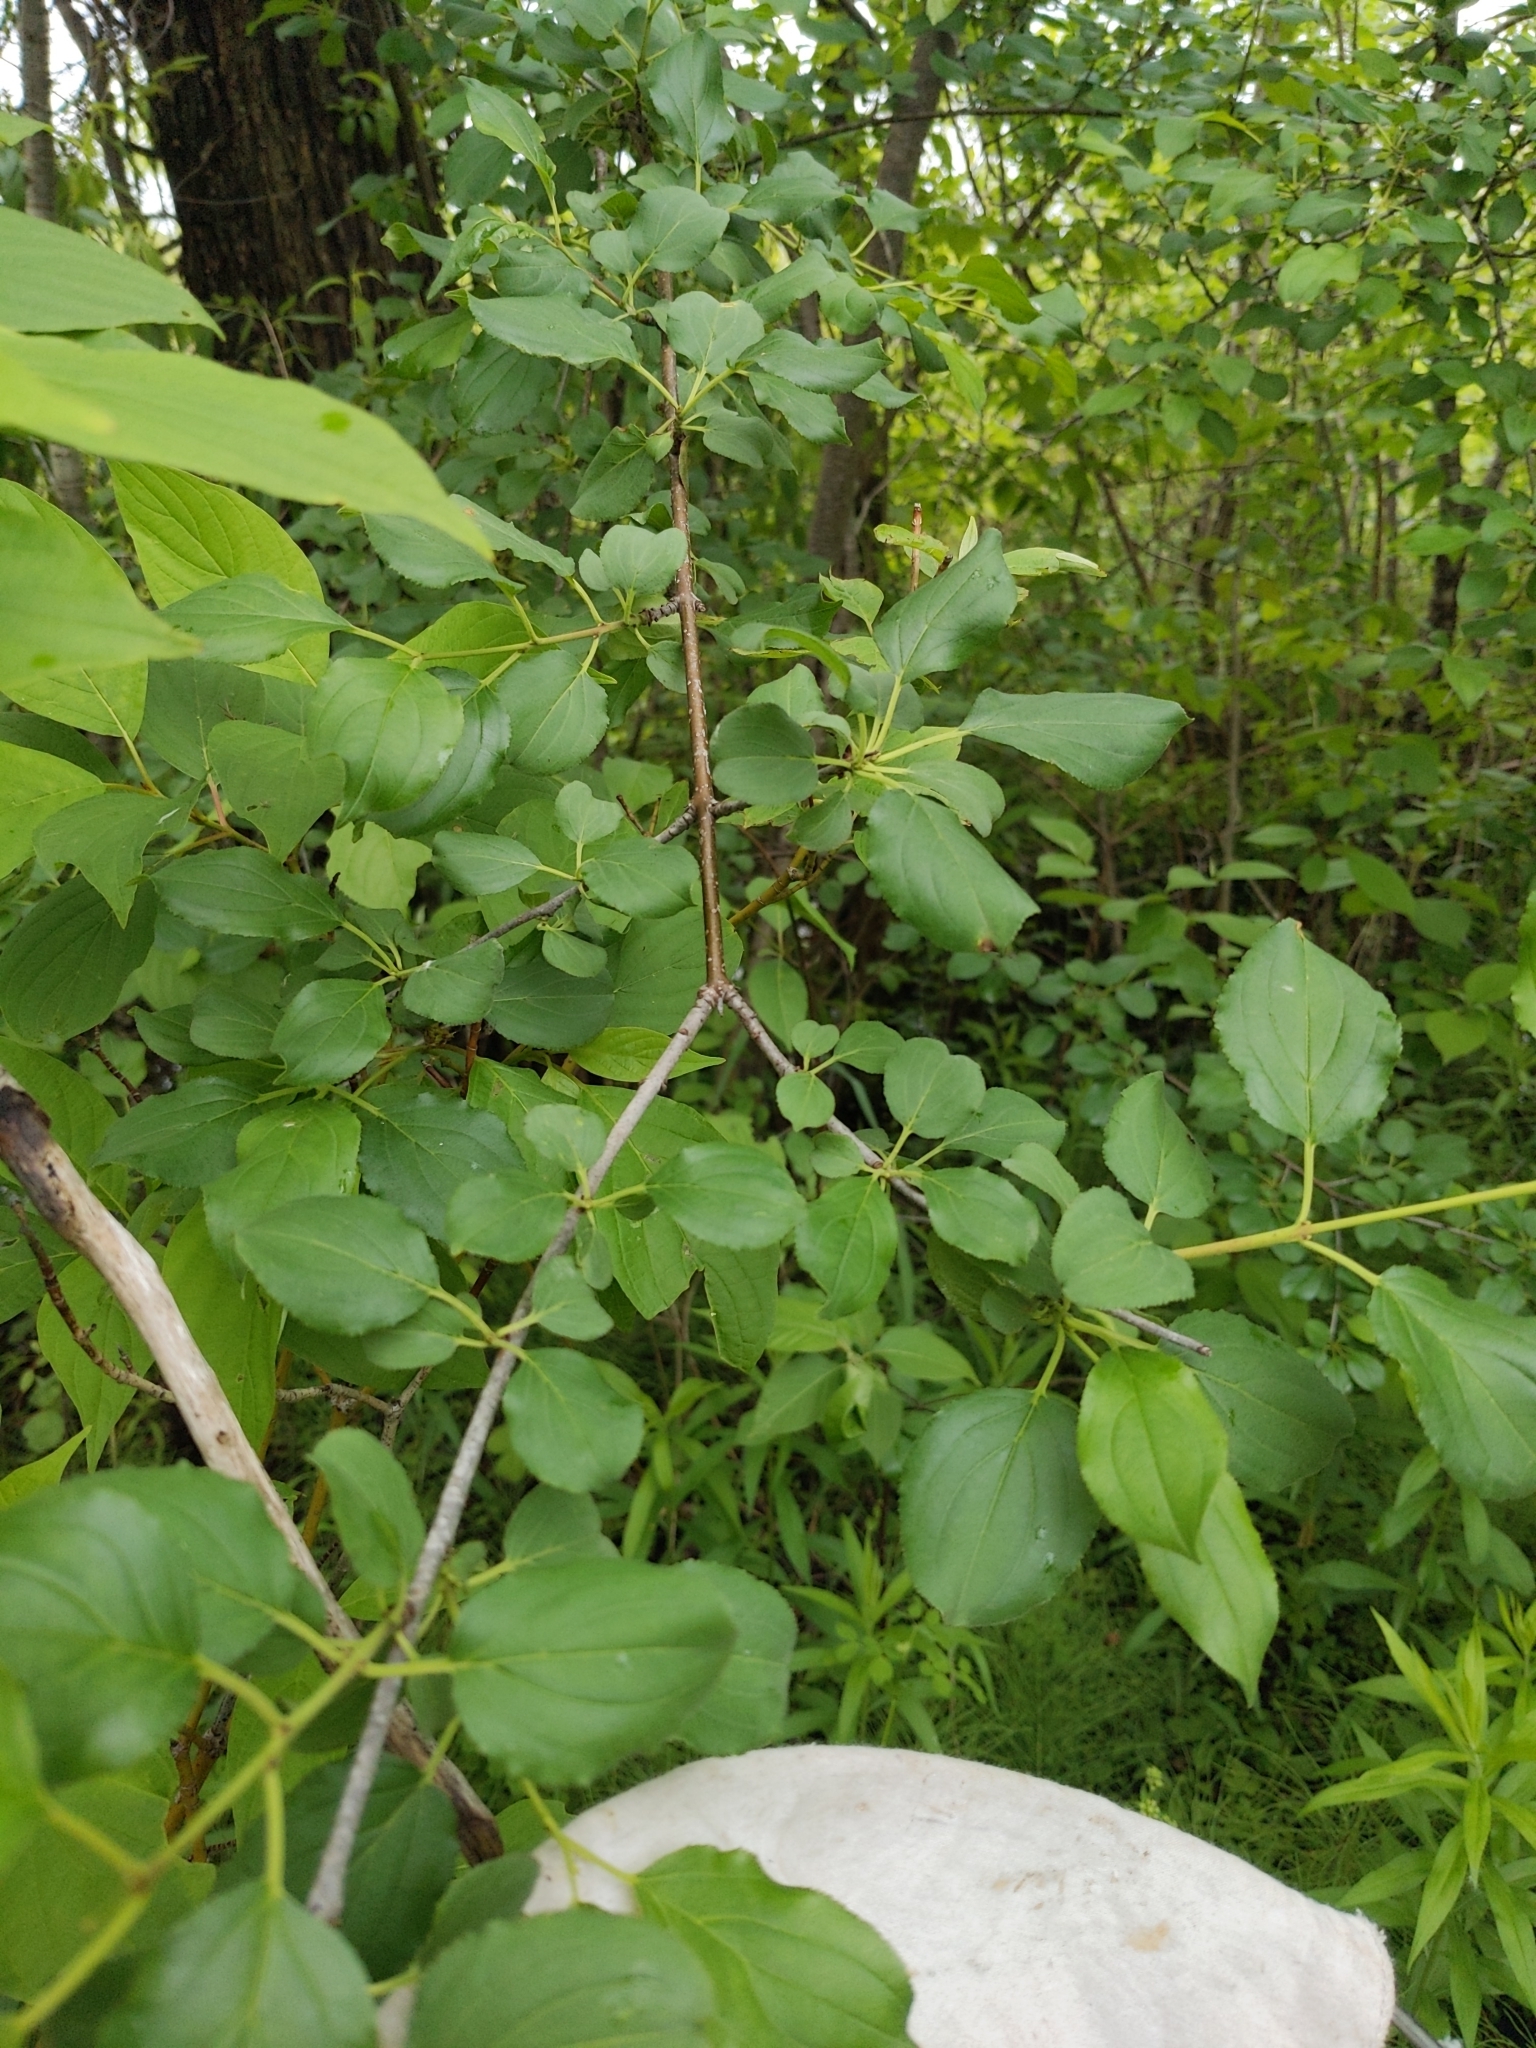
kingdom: Plantae
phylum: Tracheophyta
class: Magnoliopsida
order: Rosales
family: Rhamnaceae
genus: Rhamnus
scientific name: Rhamnus cathartica
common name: Common buckthorn
